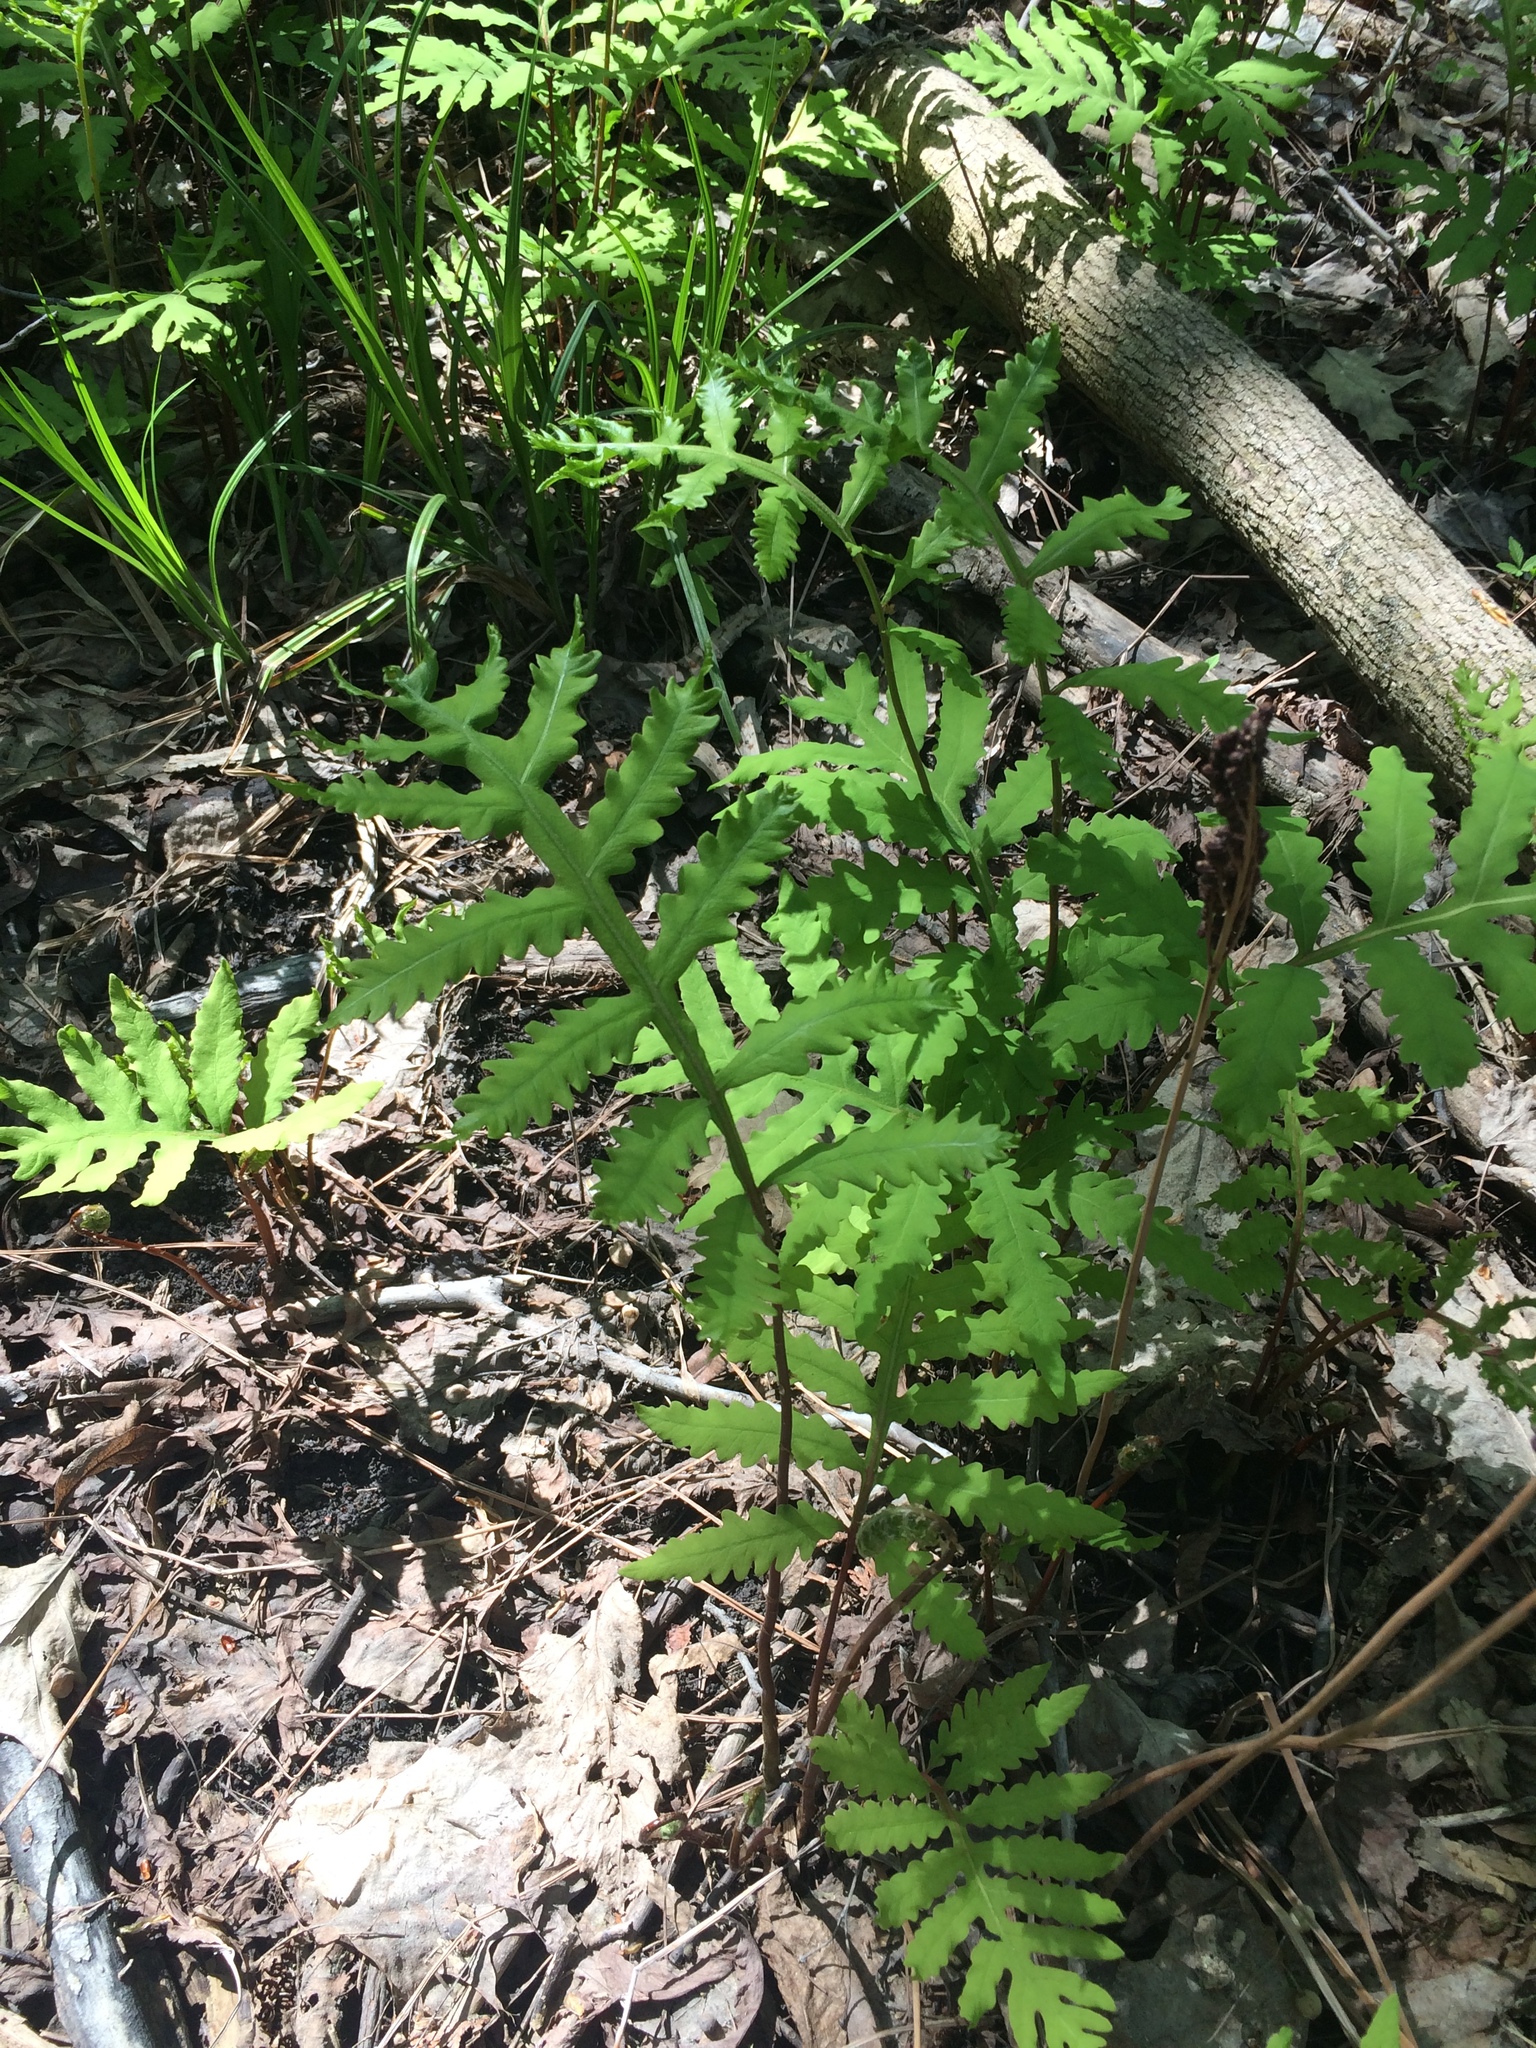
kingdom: Plantae
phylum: Tracheophyta
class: Polypodiopsida
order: Polypodiales
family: Onocleaceae
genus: Onoclea
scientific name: Onoclea sensibilis
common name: Sensitive fern
